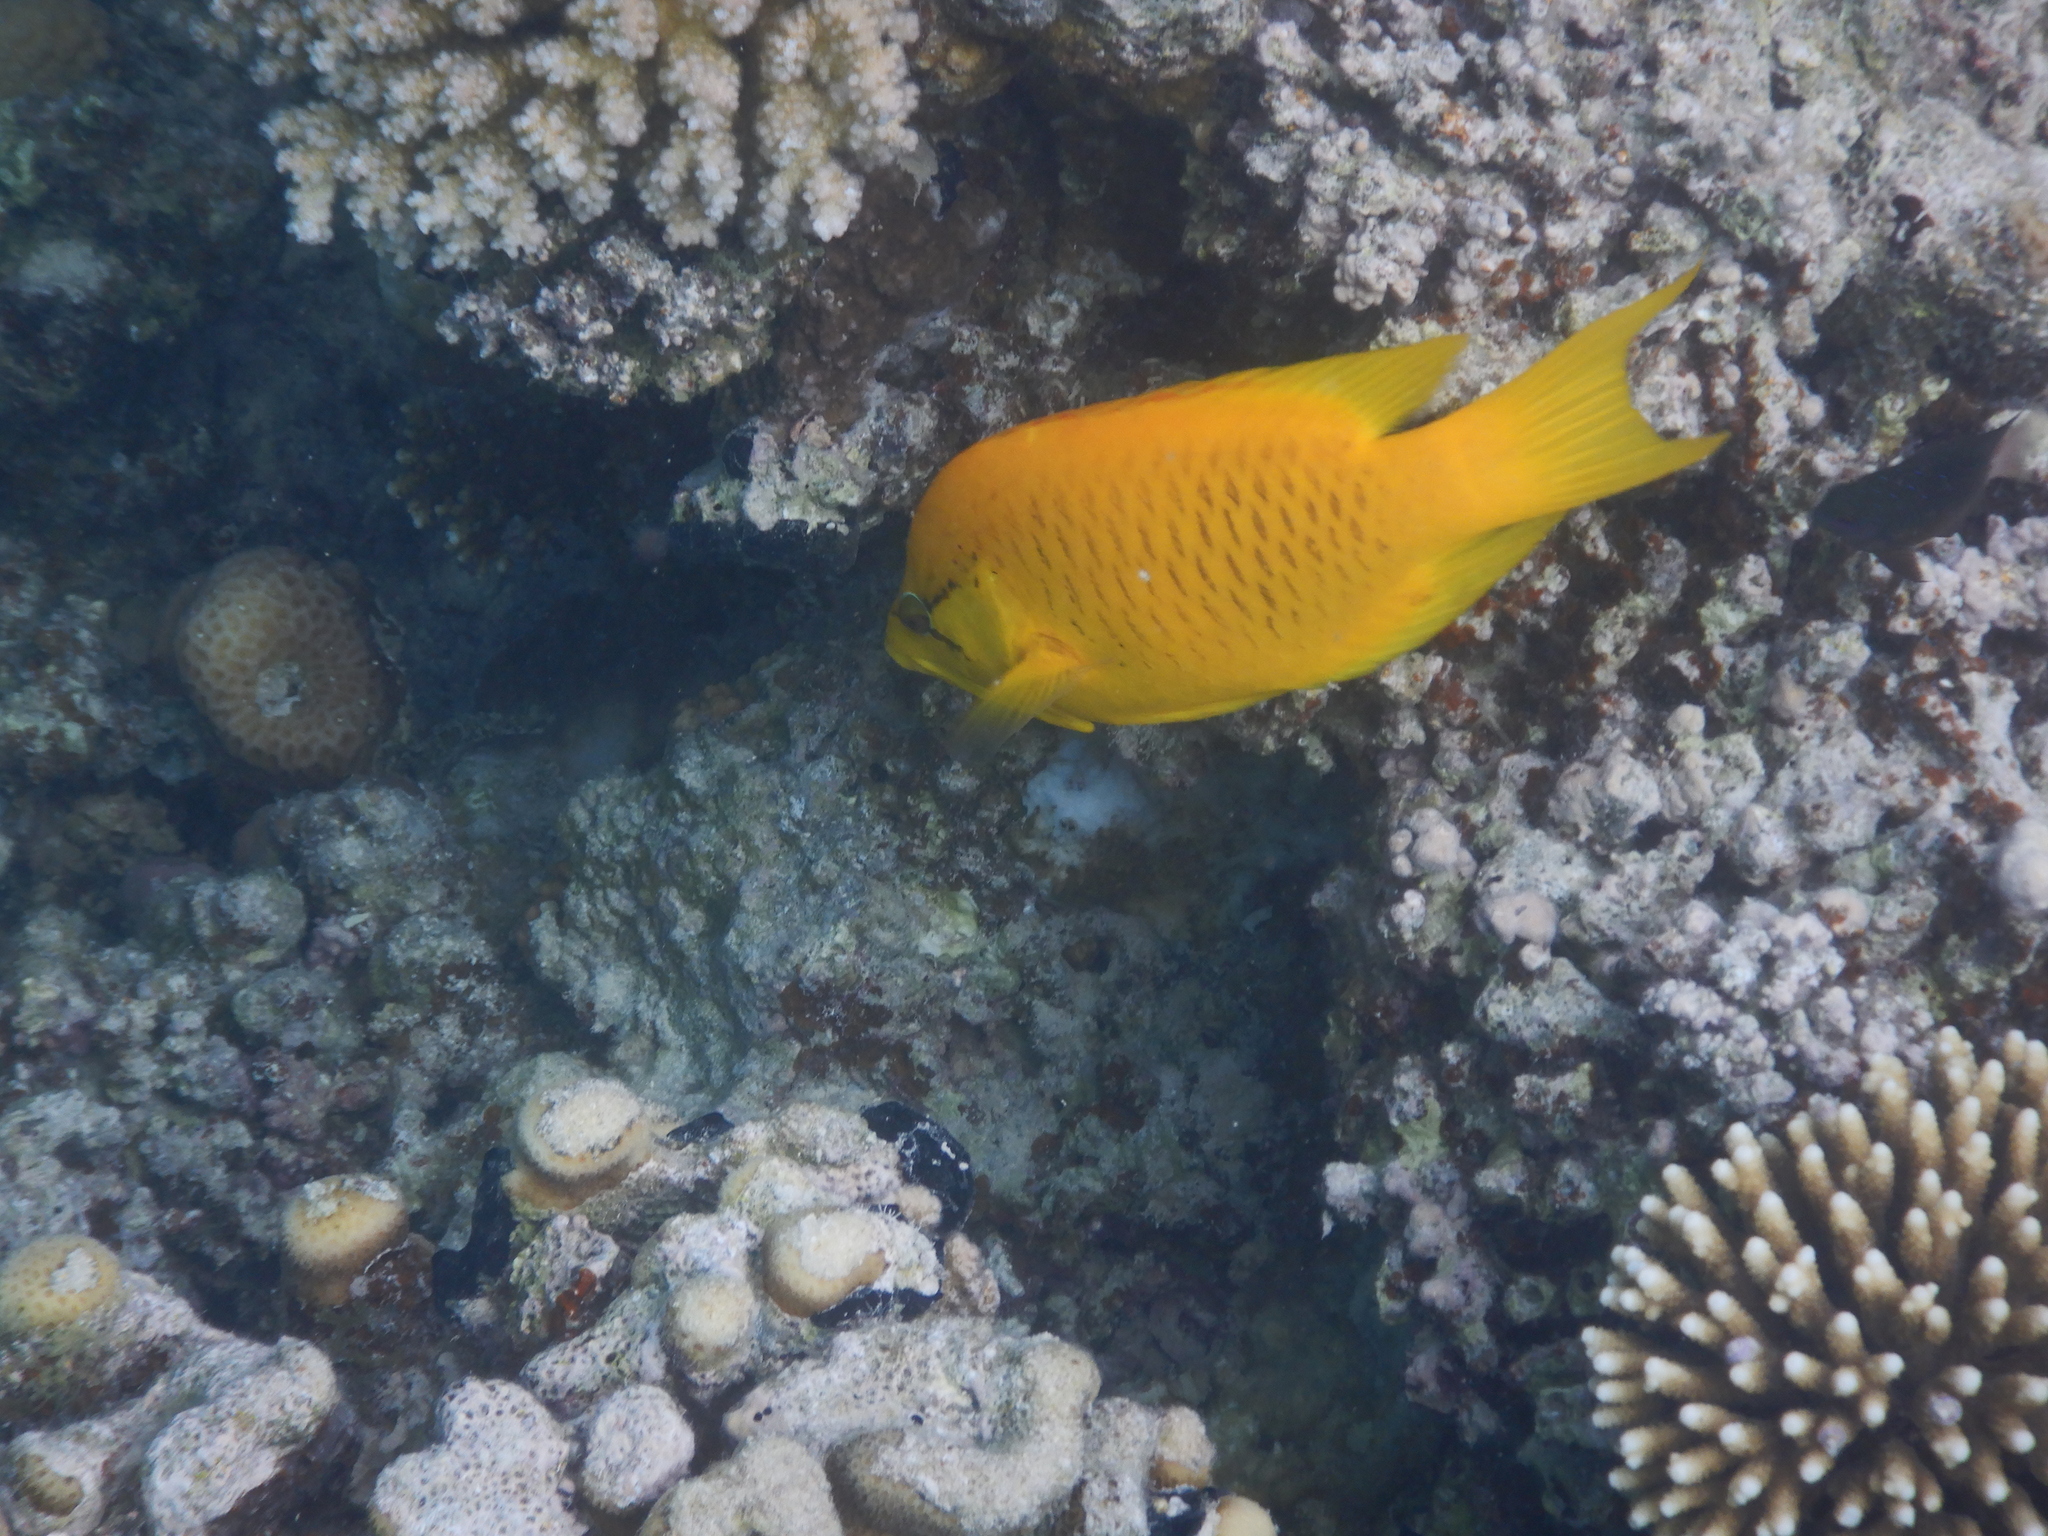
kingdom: Animalia
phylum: Chordata
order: Perciformes
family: Labridae
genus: Epibulus
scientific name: Epibulus insidiator
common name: Slingjaw wrasse
